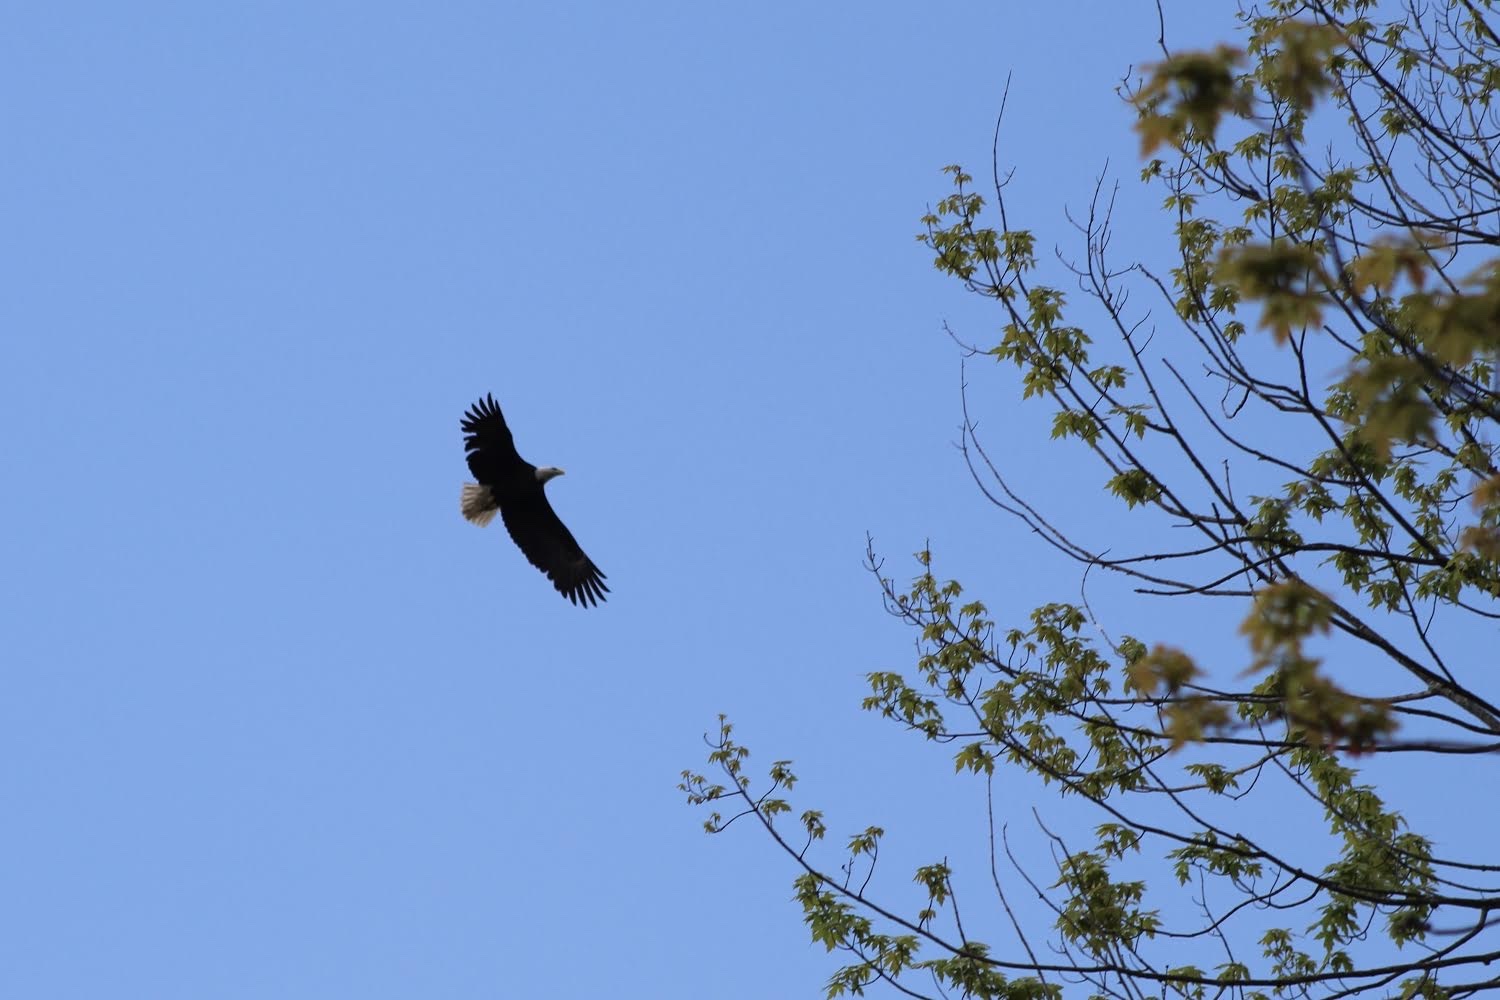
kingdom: Animalia
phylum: Chordata
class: Aves
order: Accipitriformes
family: Accipitridae
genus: Haliaeetus
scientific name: Haliaeetus leucocephalus
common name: Bald eagle
